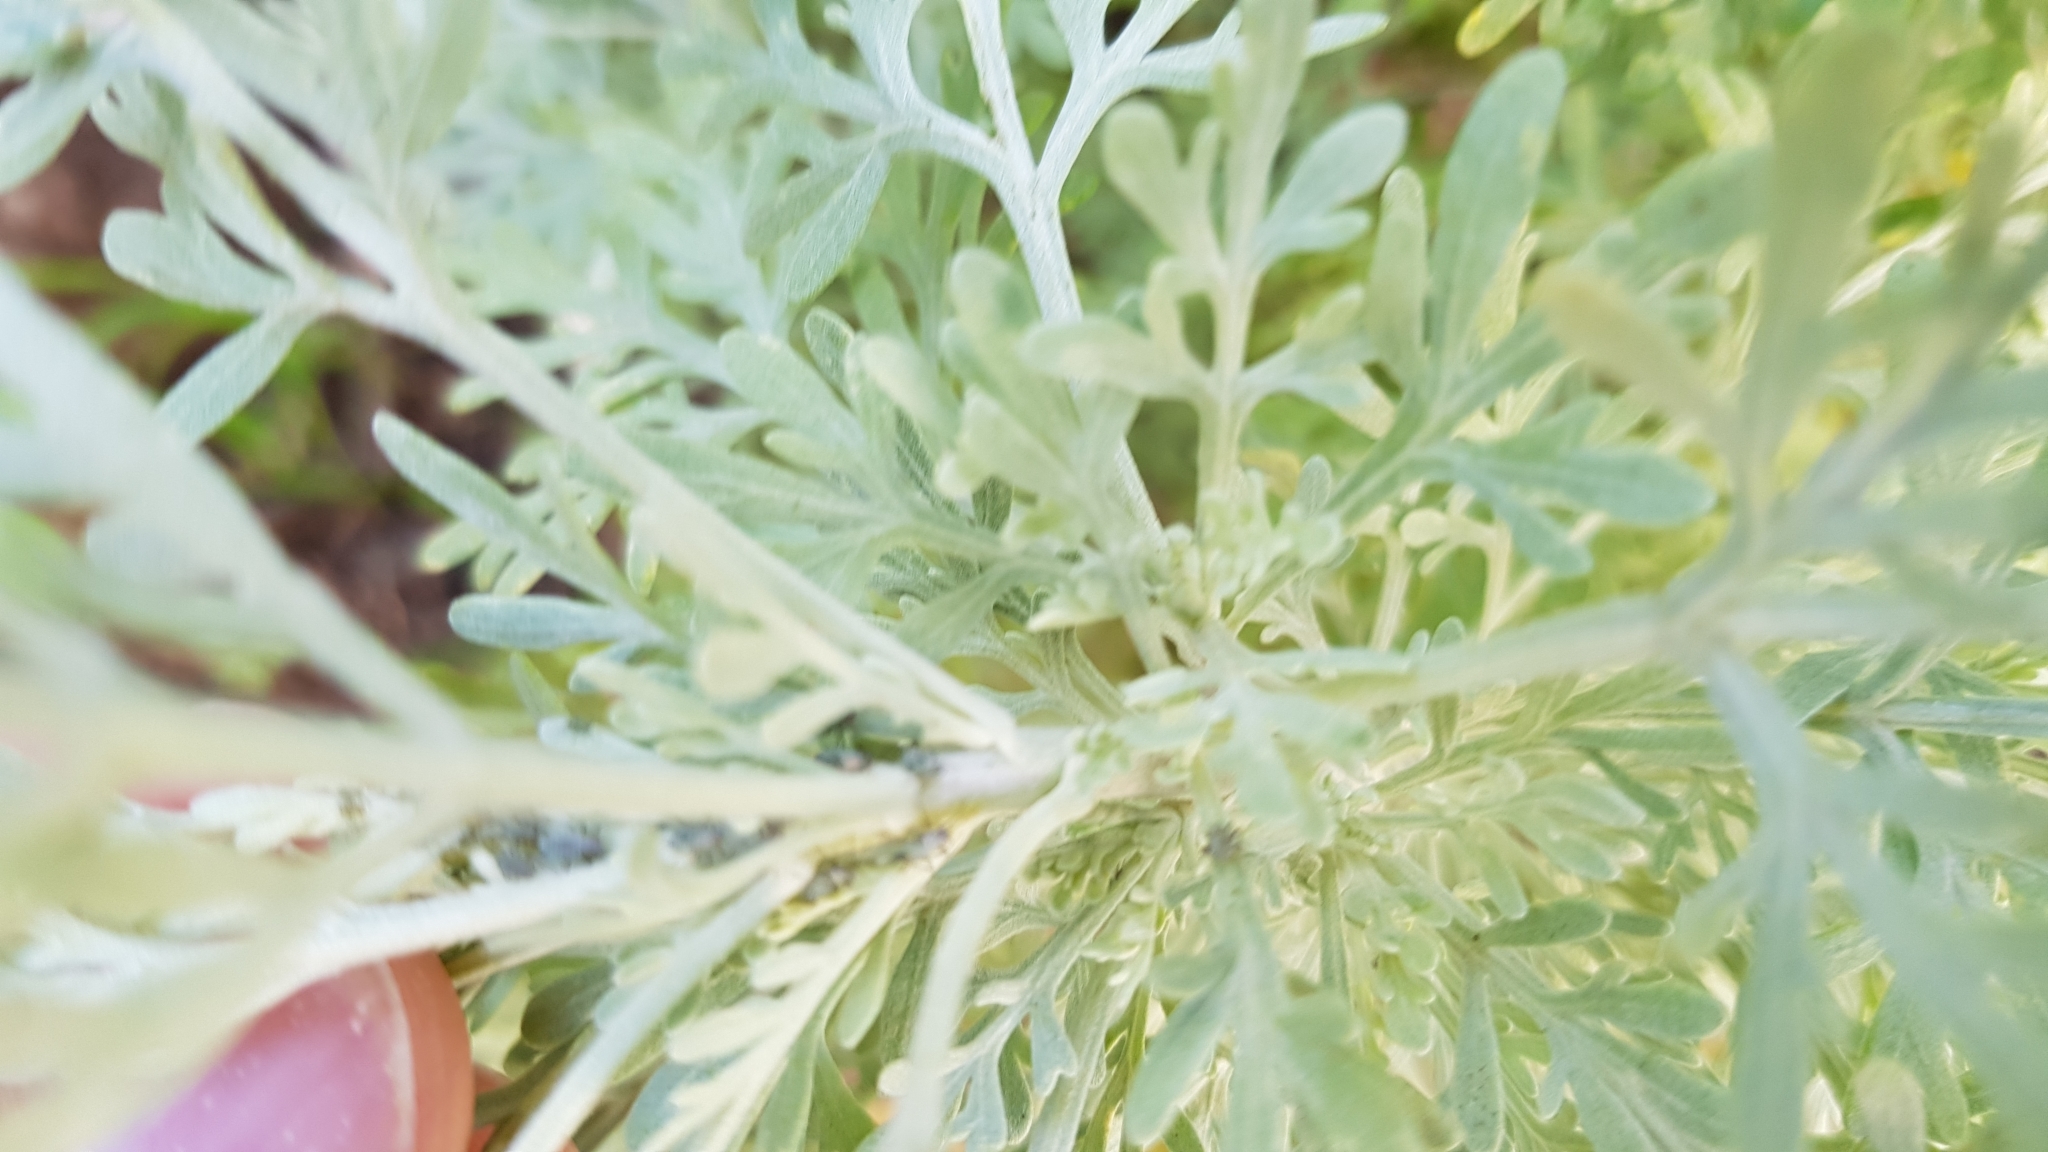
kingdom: Plantae
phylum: Tracheophyta
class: Magnoliopsida
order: Asterales
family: Asteraceae
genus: Artemisia
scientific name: Artemisia thuscula
